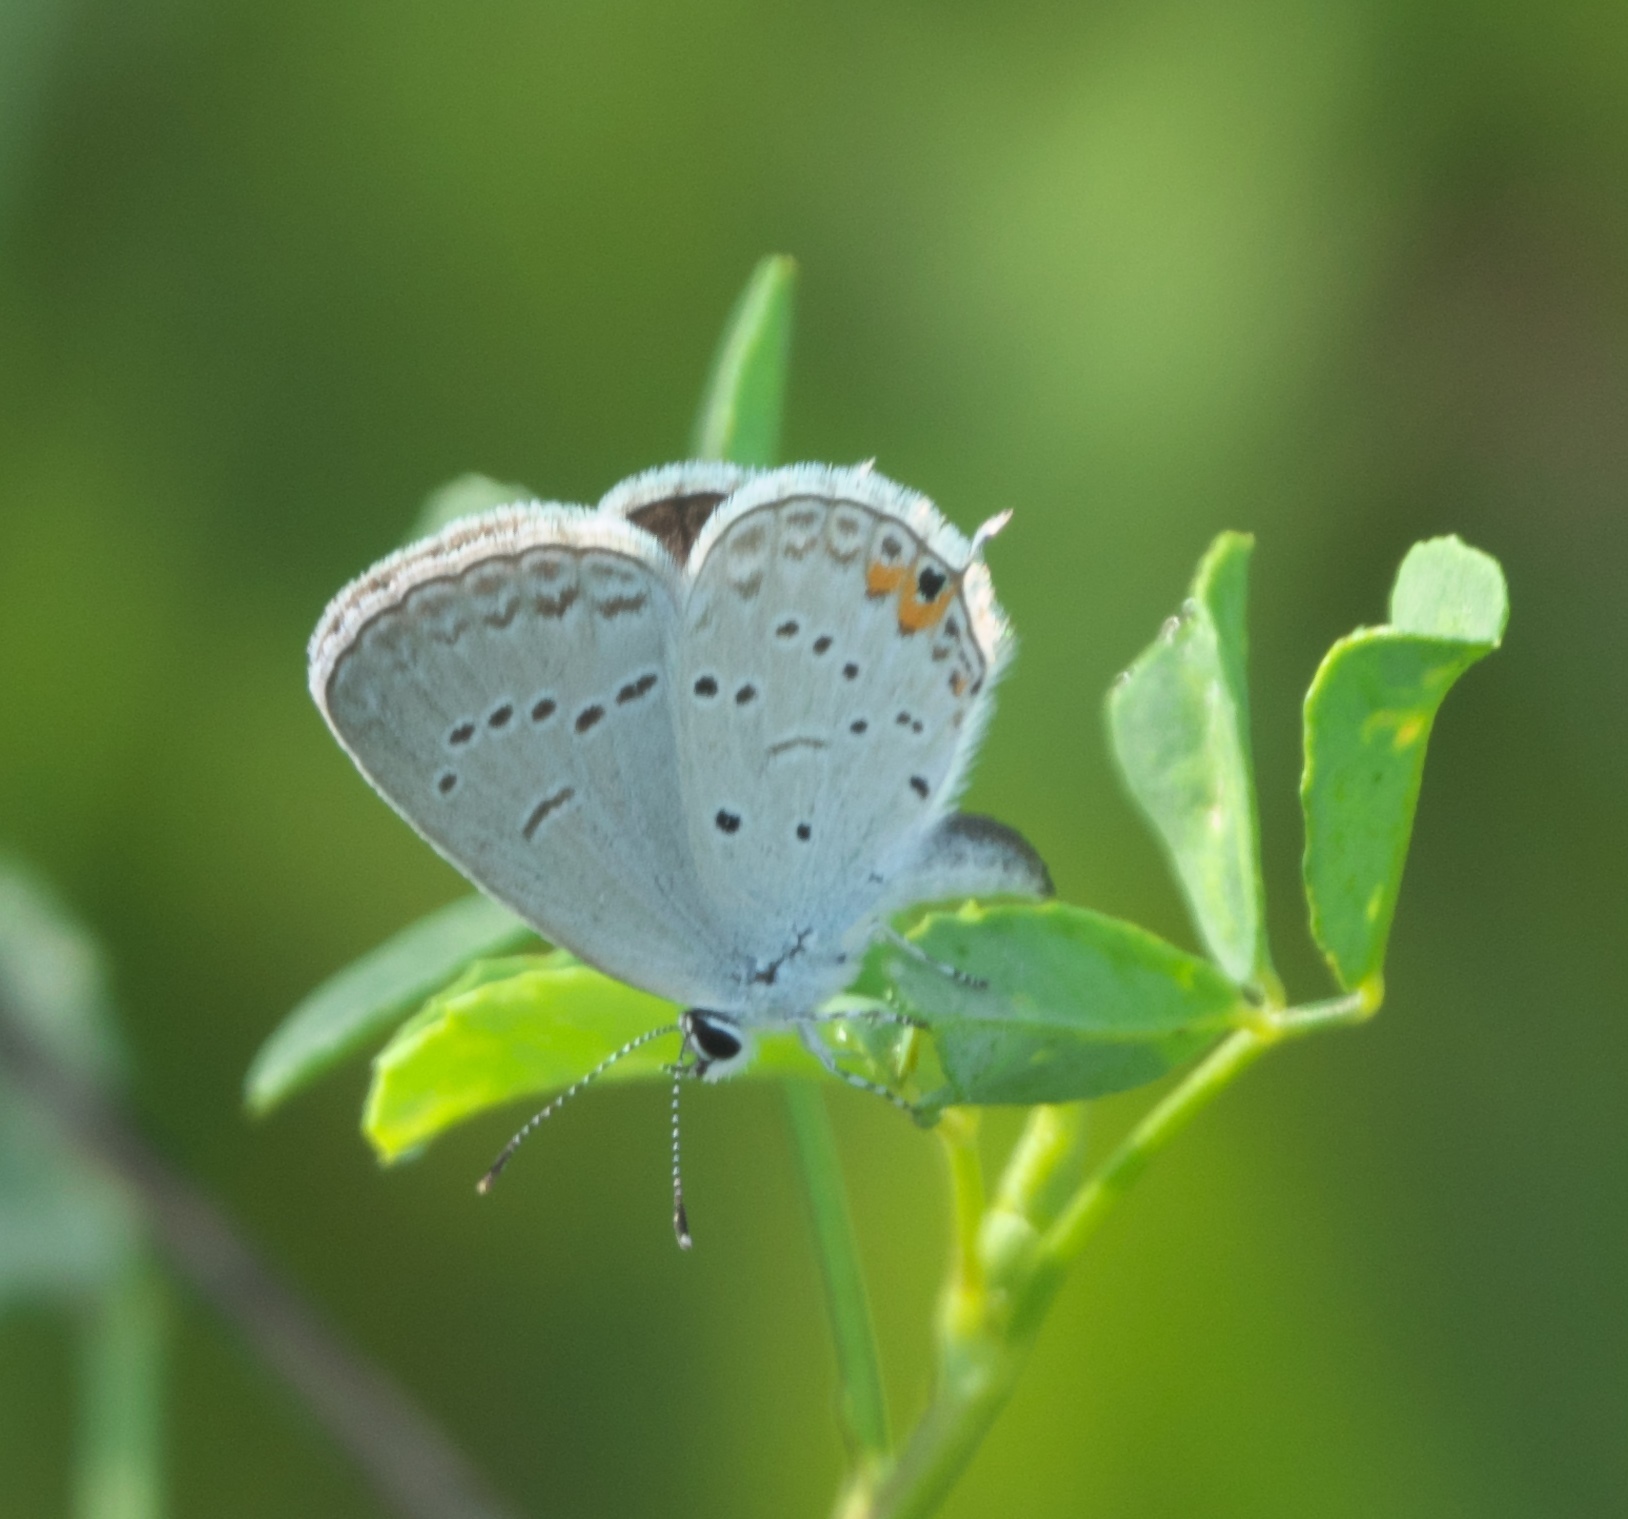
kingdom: Animalia
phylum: Arthropoda
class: Insecta
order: Lepidoptera
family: Lycaenidae
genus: Elkalyce
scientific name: Elkalyce comyntas
